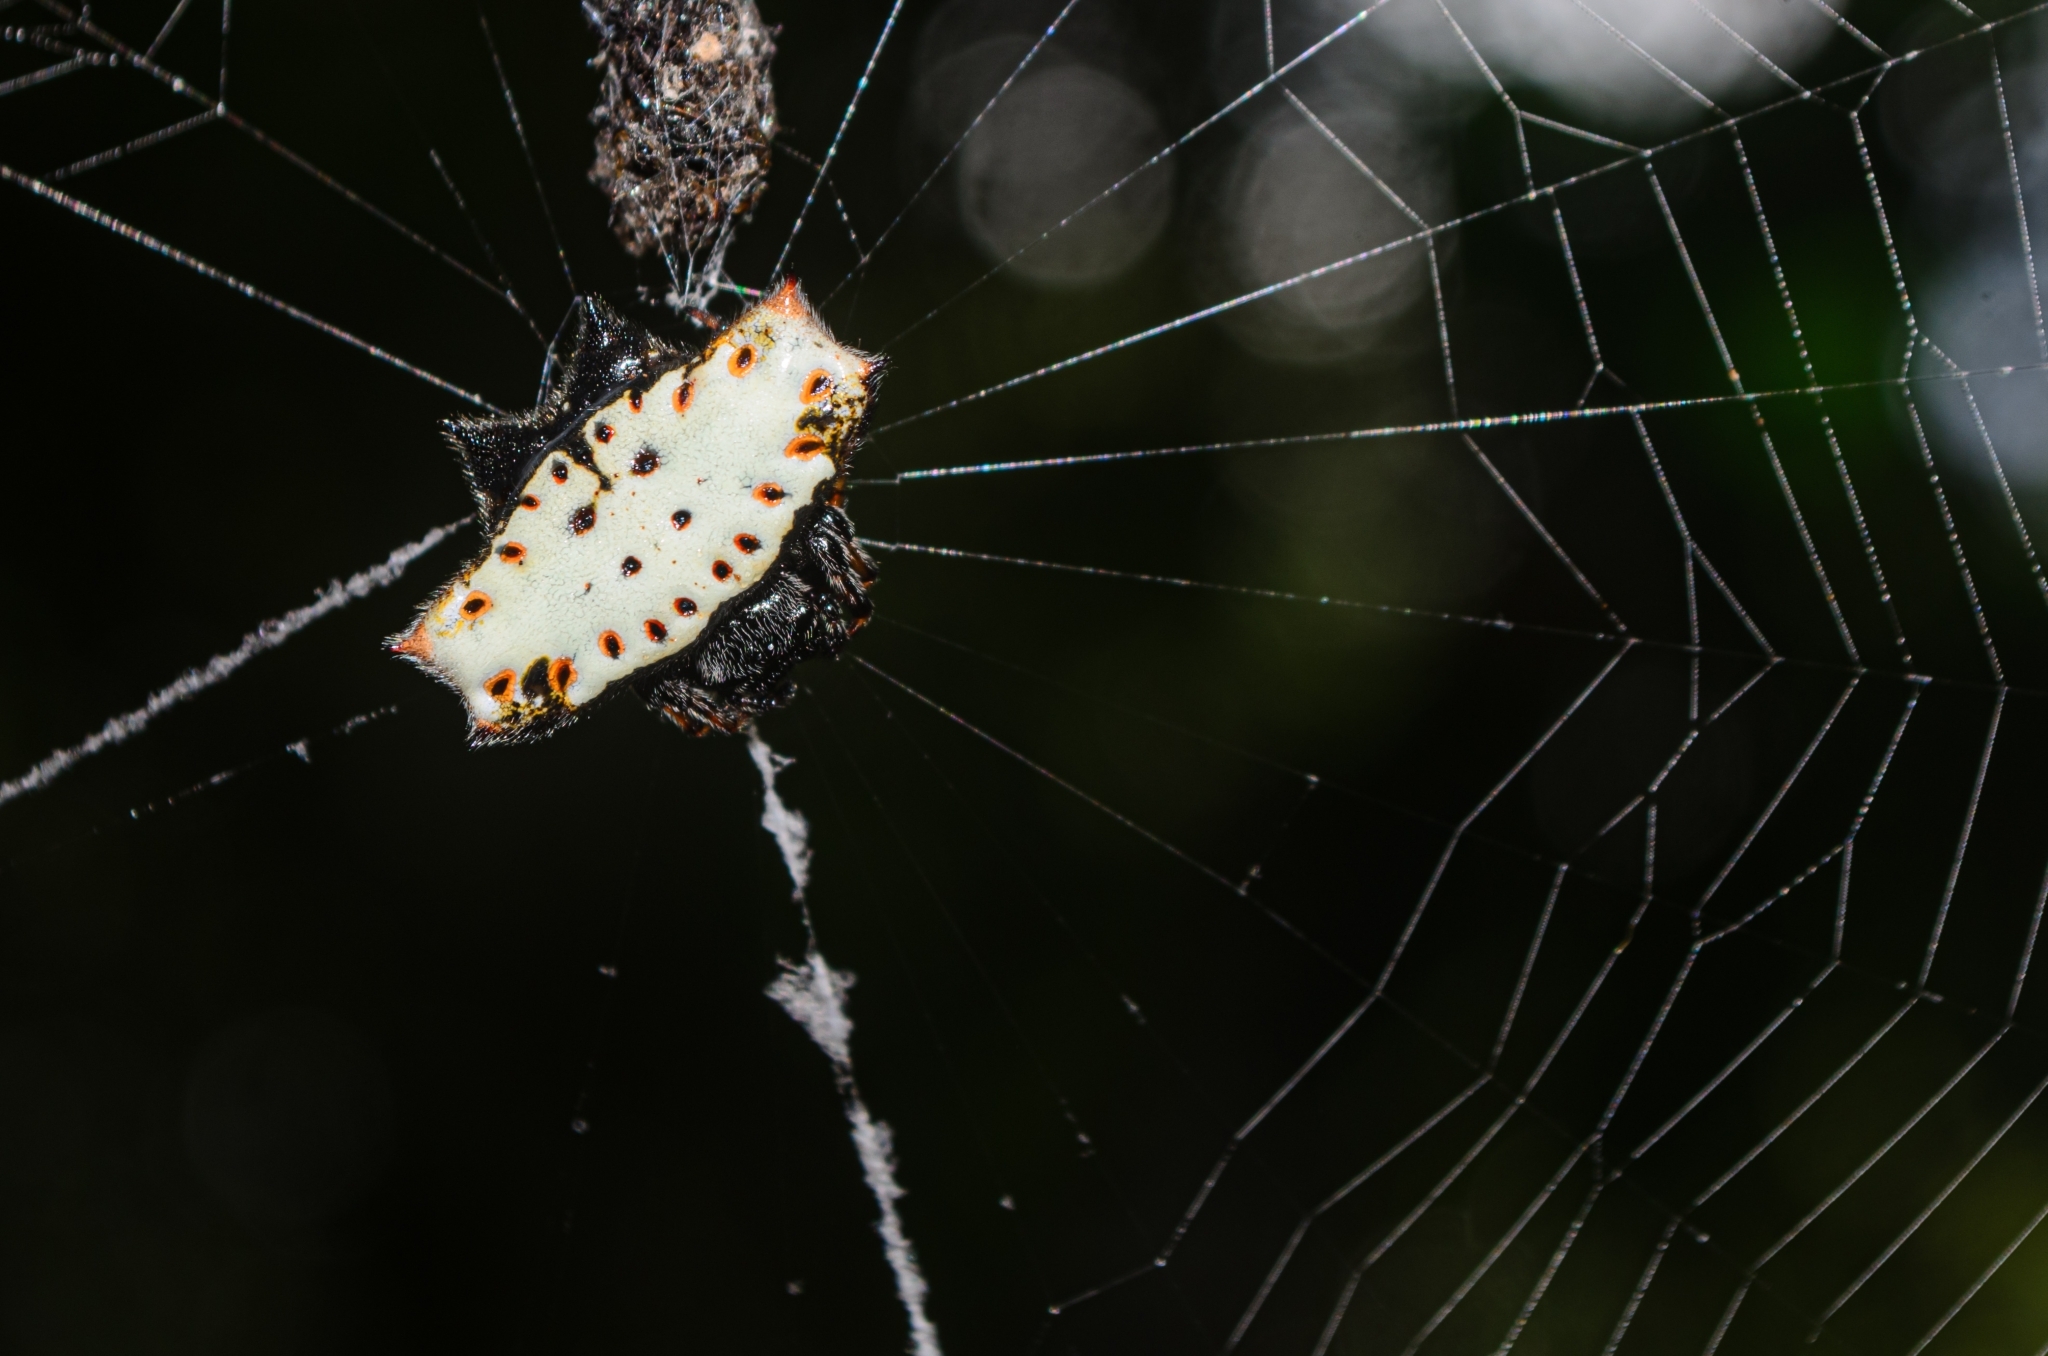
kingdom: Animalia
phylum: Arthropoda
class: Arachnida
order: Araneae
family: Araneidae
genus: Gasteracantha
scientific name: Gasteracantha cancriformis
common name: Orb weavers
